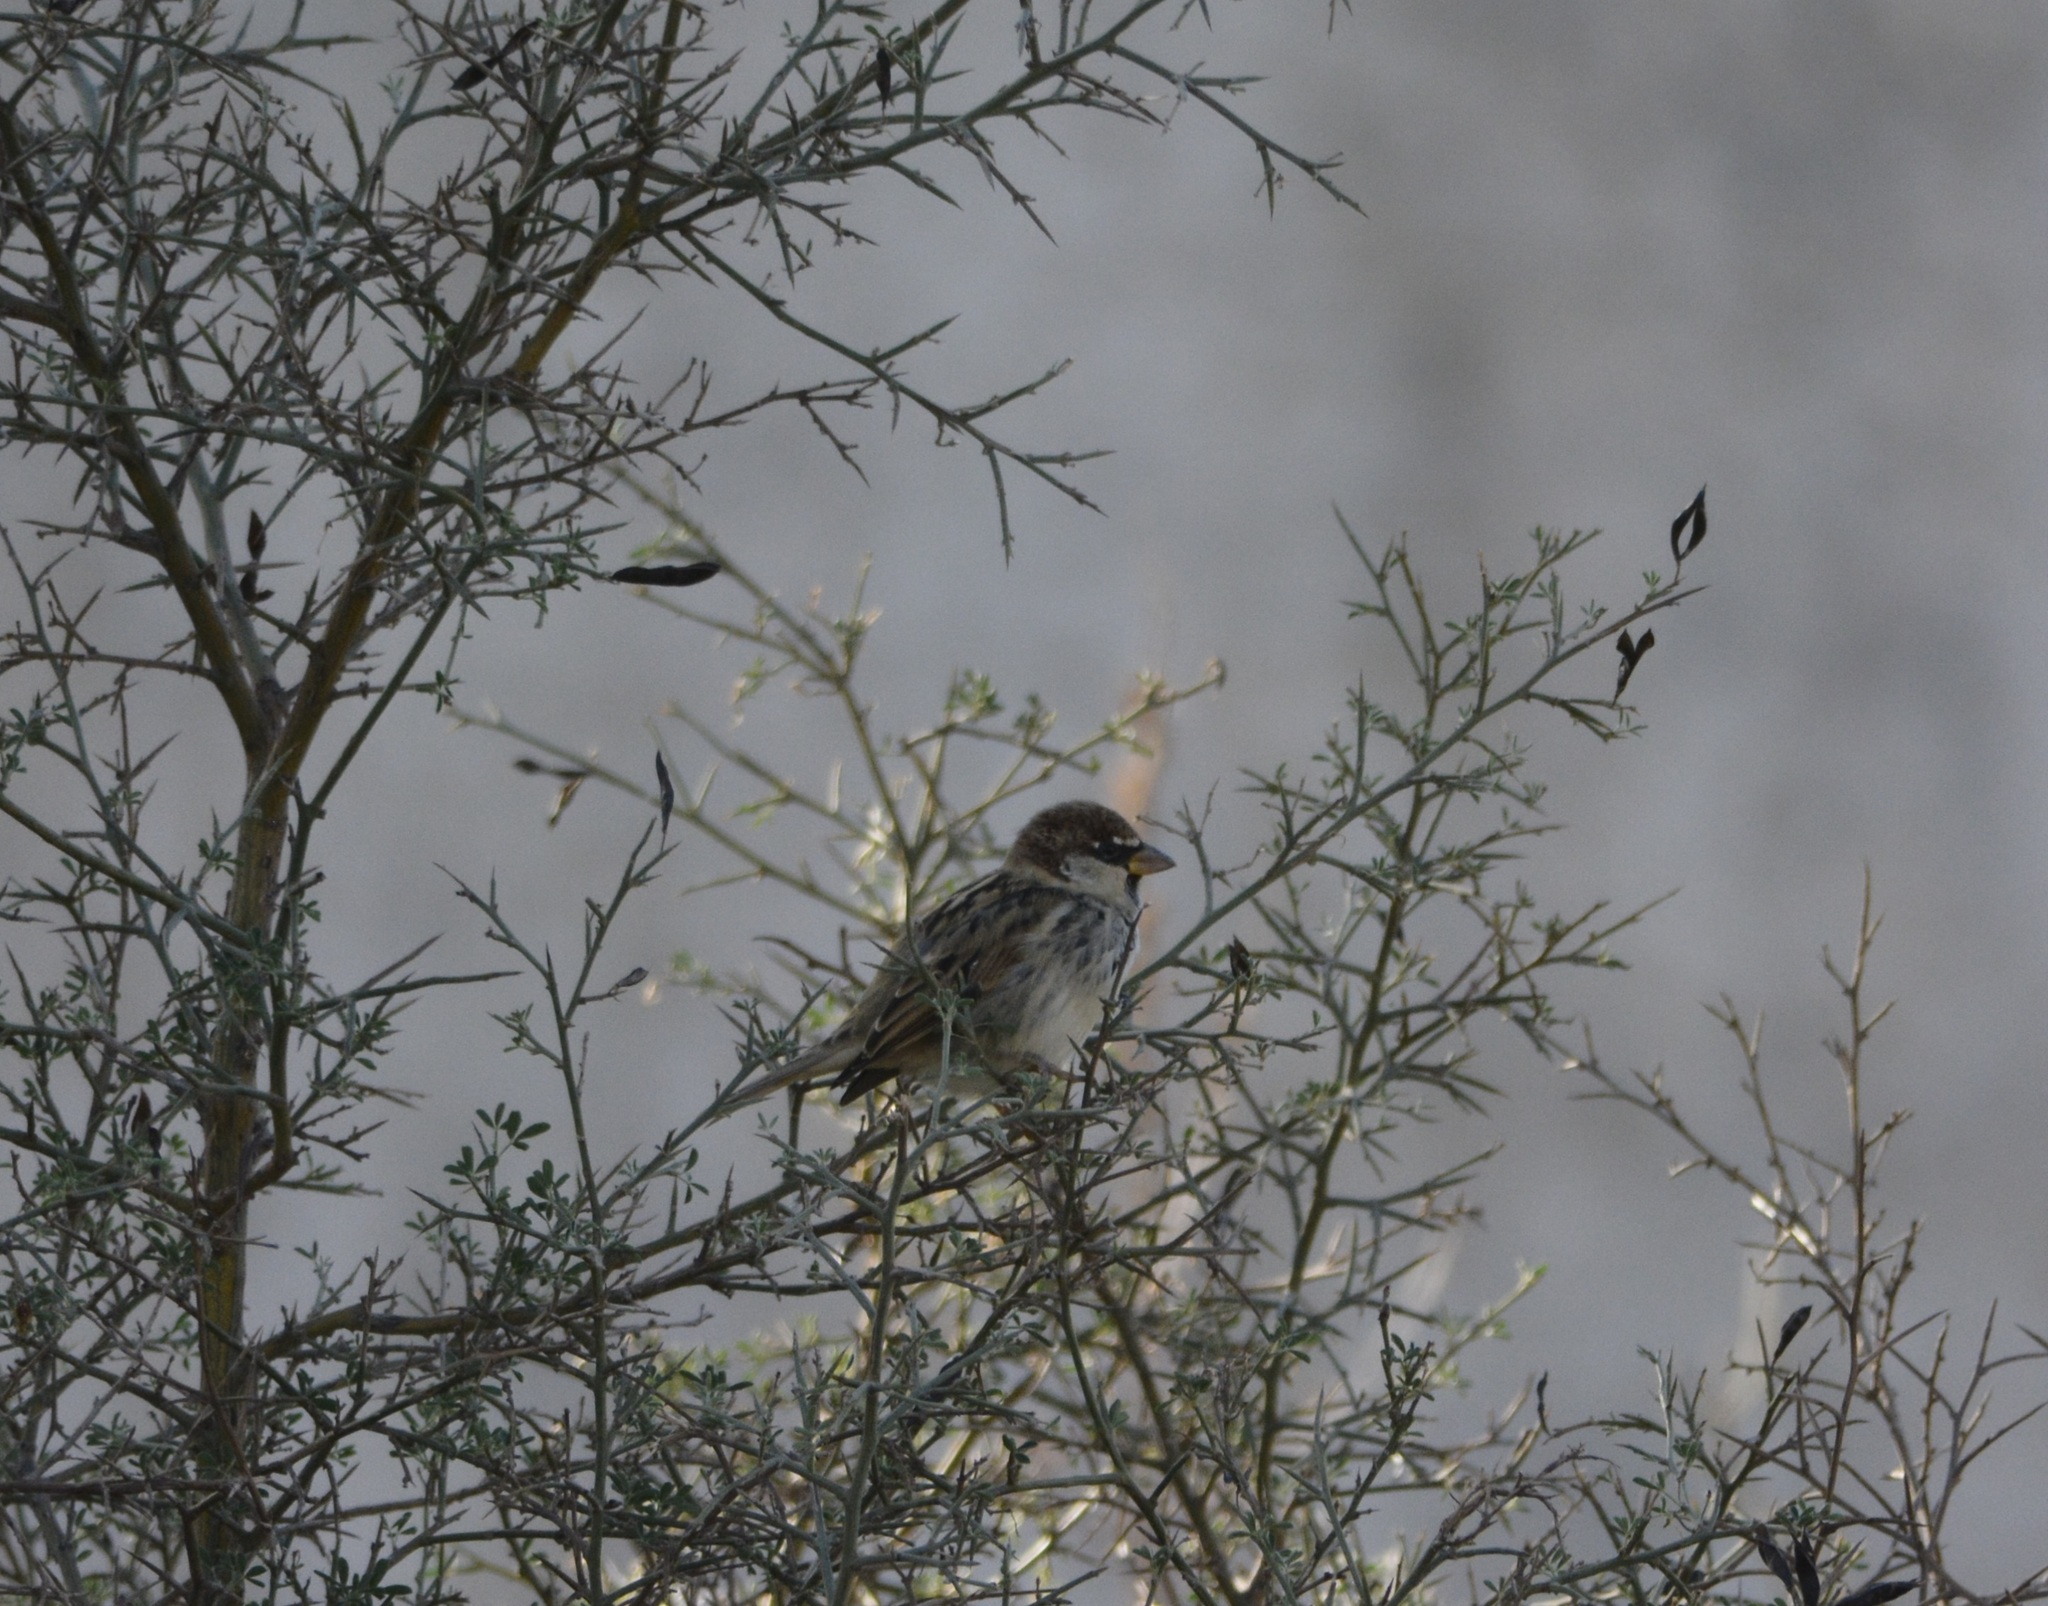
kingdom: Animalia
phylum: Chordata
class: Aves
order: Passeriformes
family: Passeridae
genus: Passer
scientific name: Passer hispaniolensis
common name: Spanish sparrow
